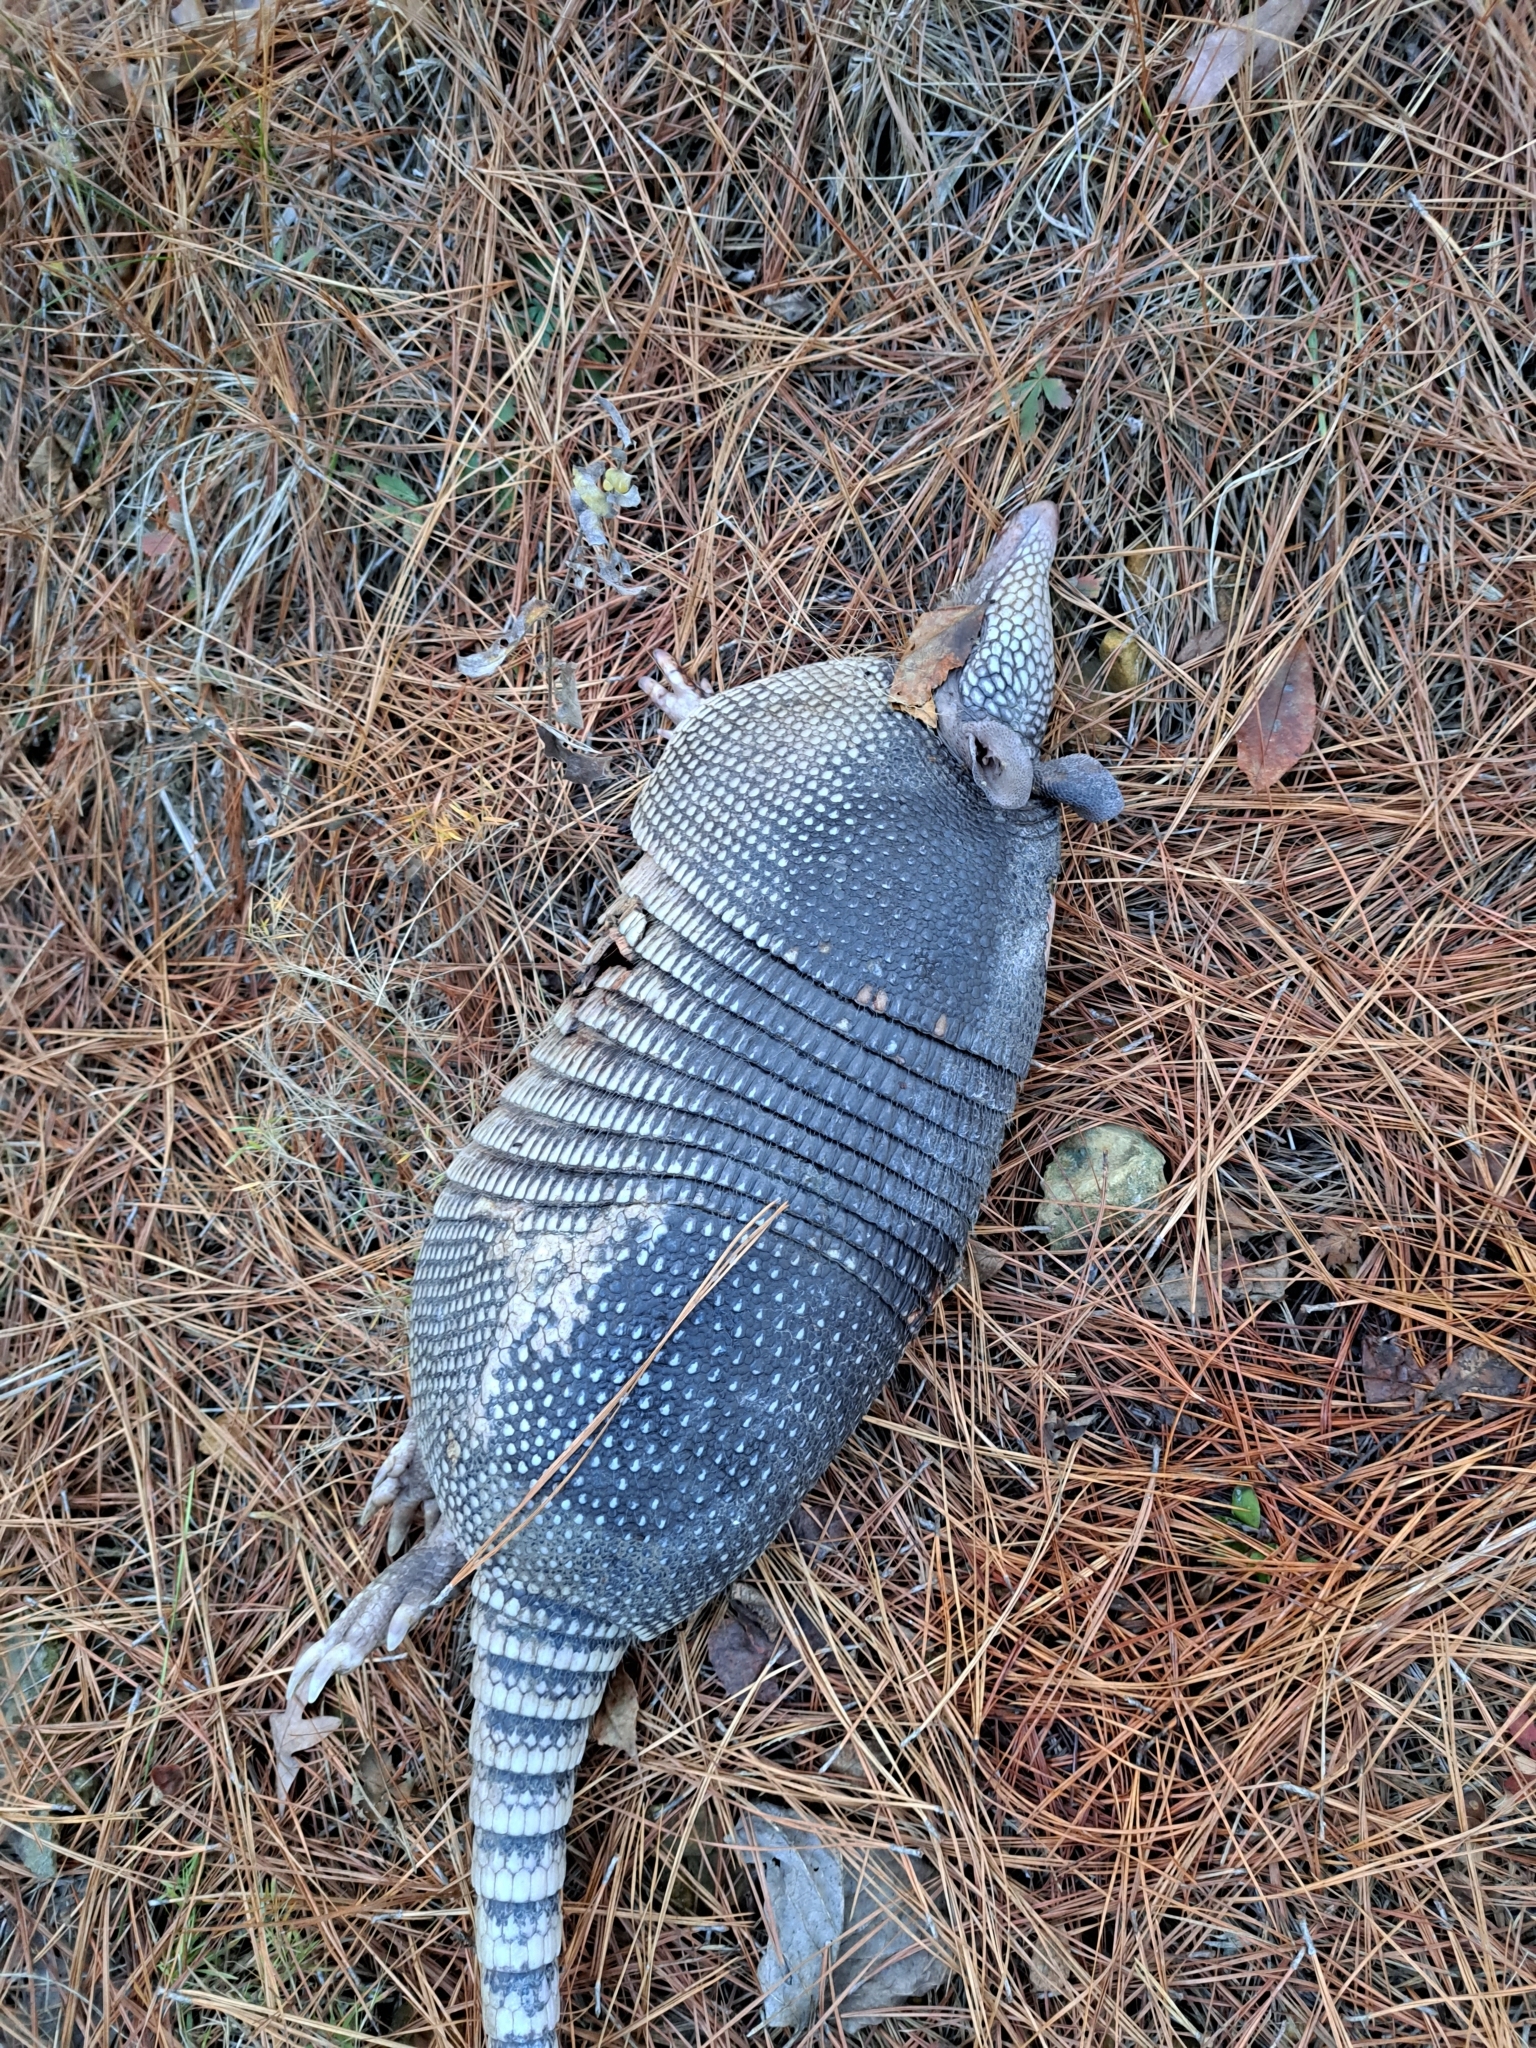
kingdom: Animalia
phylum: Chordata
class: Mammalia
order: Cingulata
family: Dasypodidae
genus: Dasypus
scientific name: Dasypus novemcinctus
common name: Nine-banded armadillo
